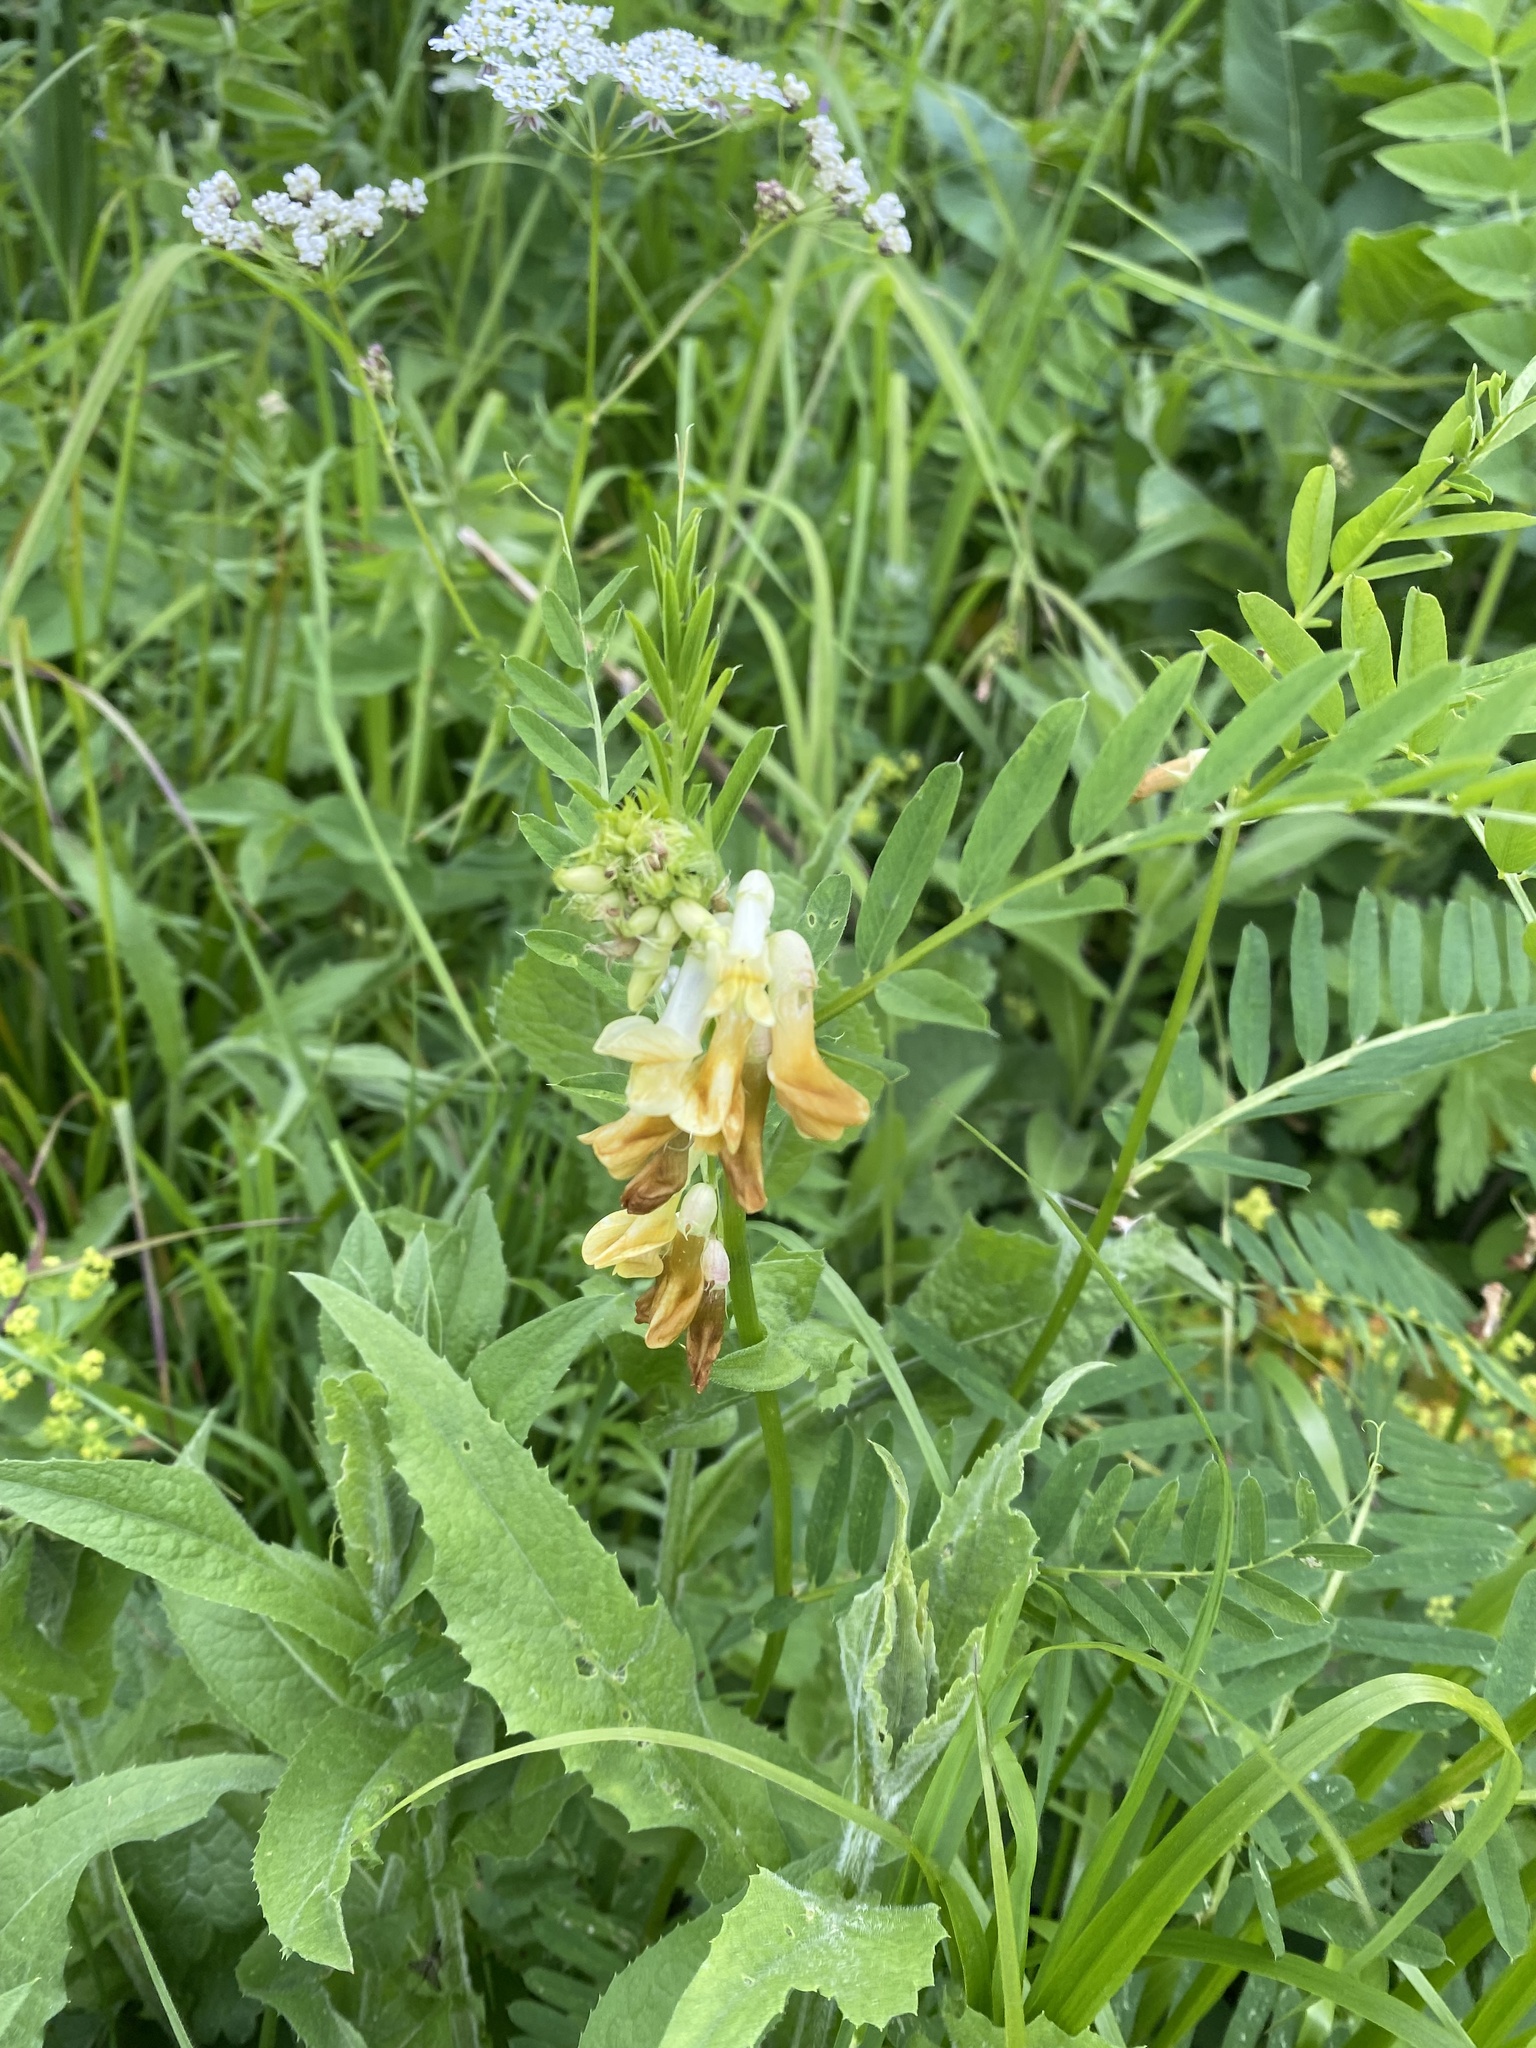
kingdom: Plantae
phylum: Tracheophyta
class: Magnoliopsida
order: Fabales
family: Fabaceae
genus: Vicia
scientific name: Vicia balansae
